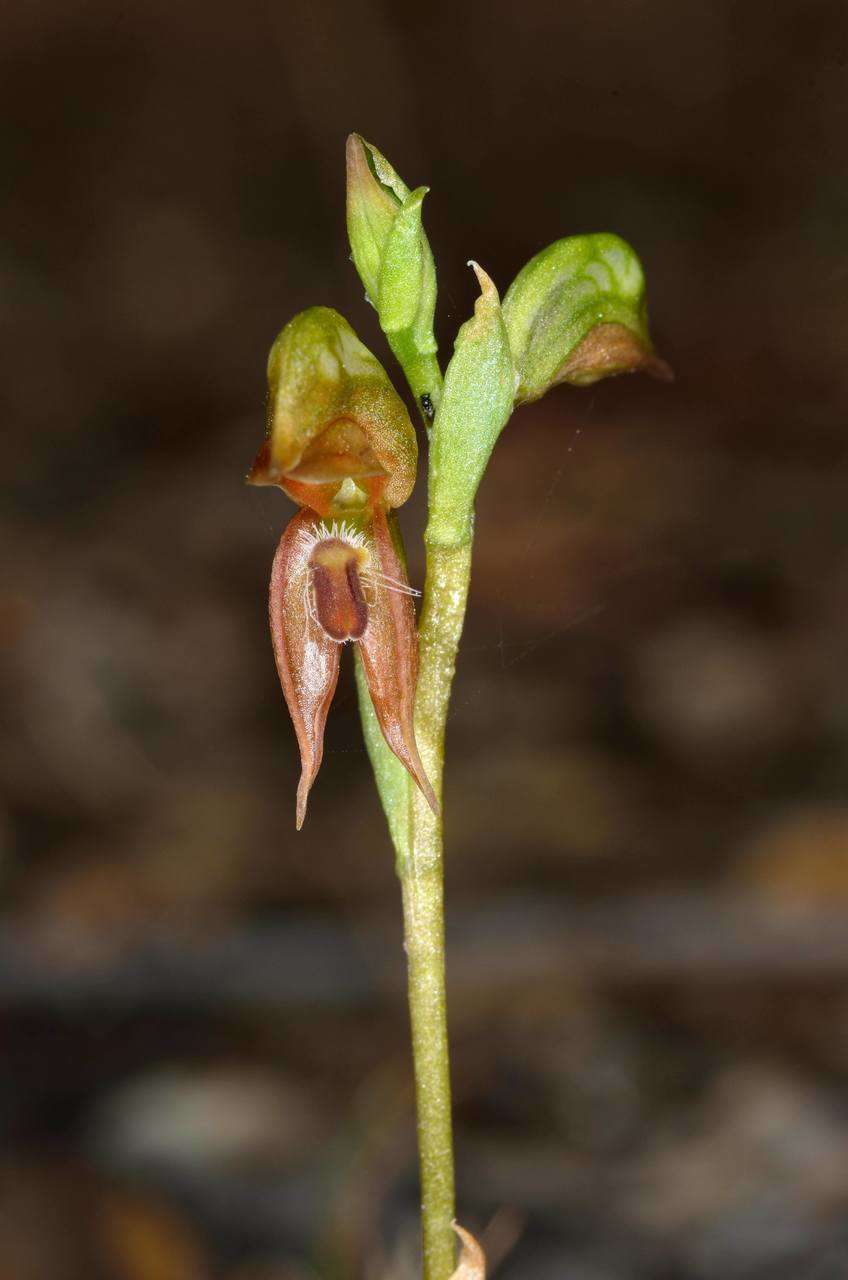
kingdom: Plantae
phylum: Tracheophyta
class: Liliopsida
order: Asparagales
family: Orchidaceae
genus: Pterostylis
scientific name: Pterostylis squamata
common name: Ruddy greenhood
